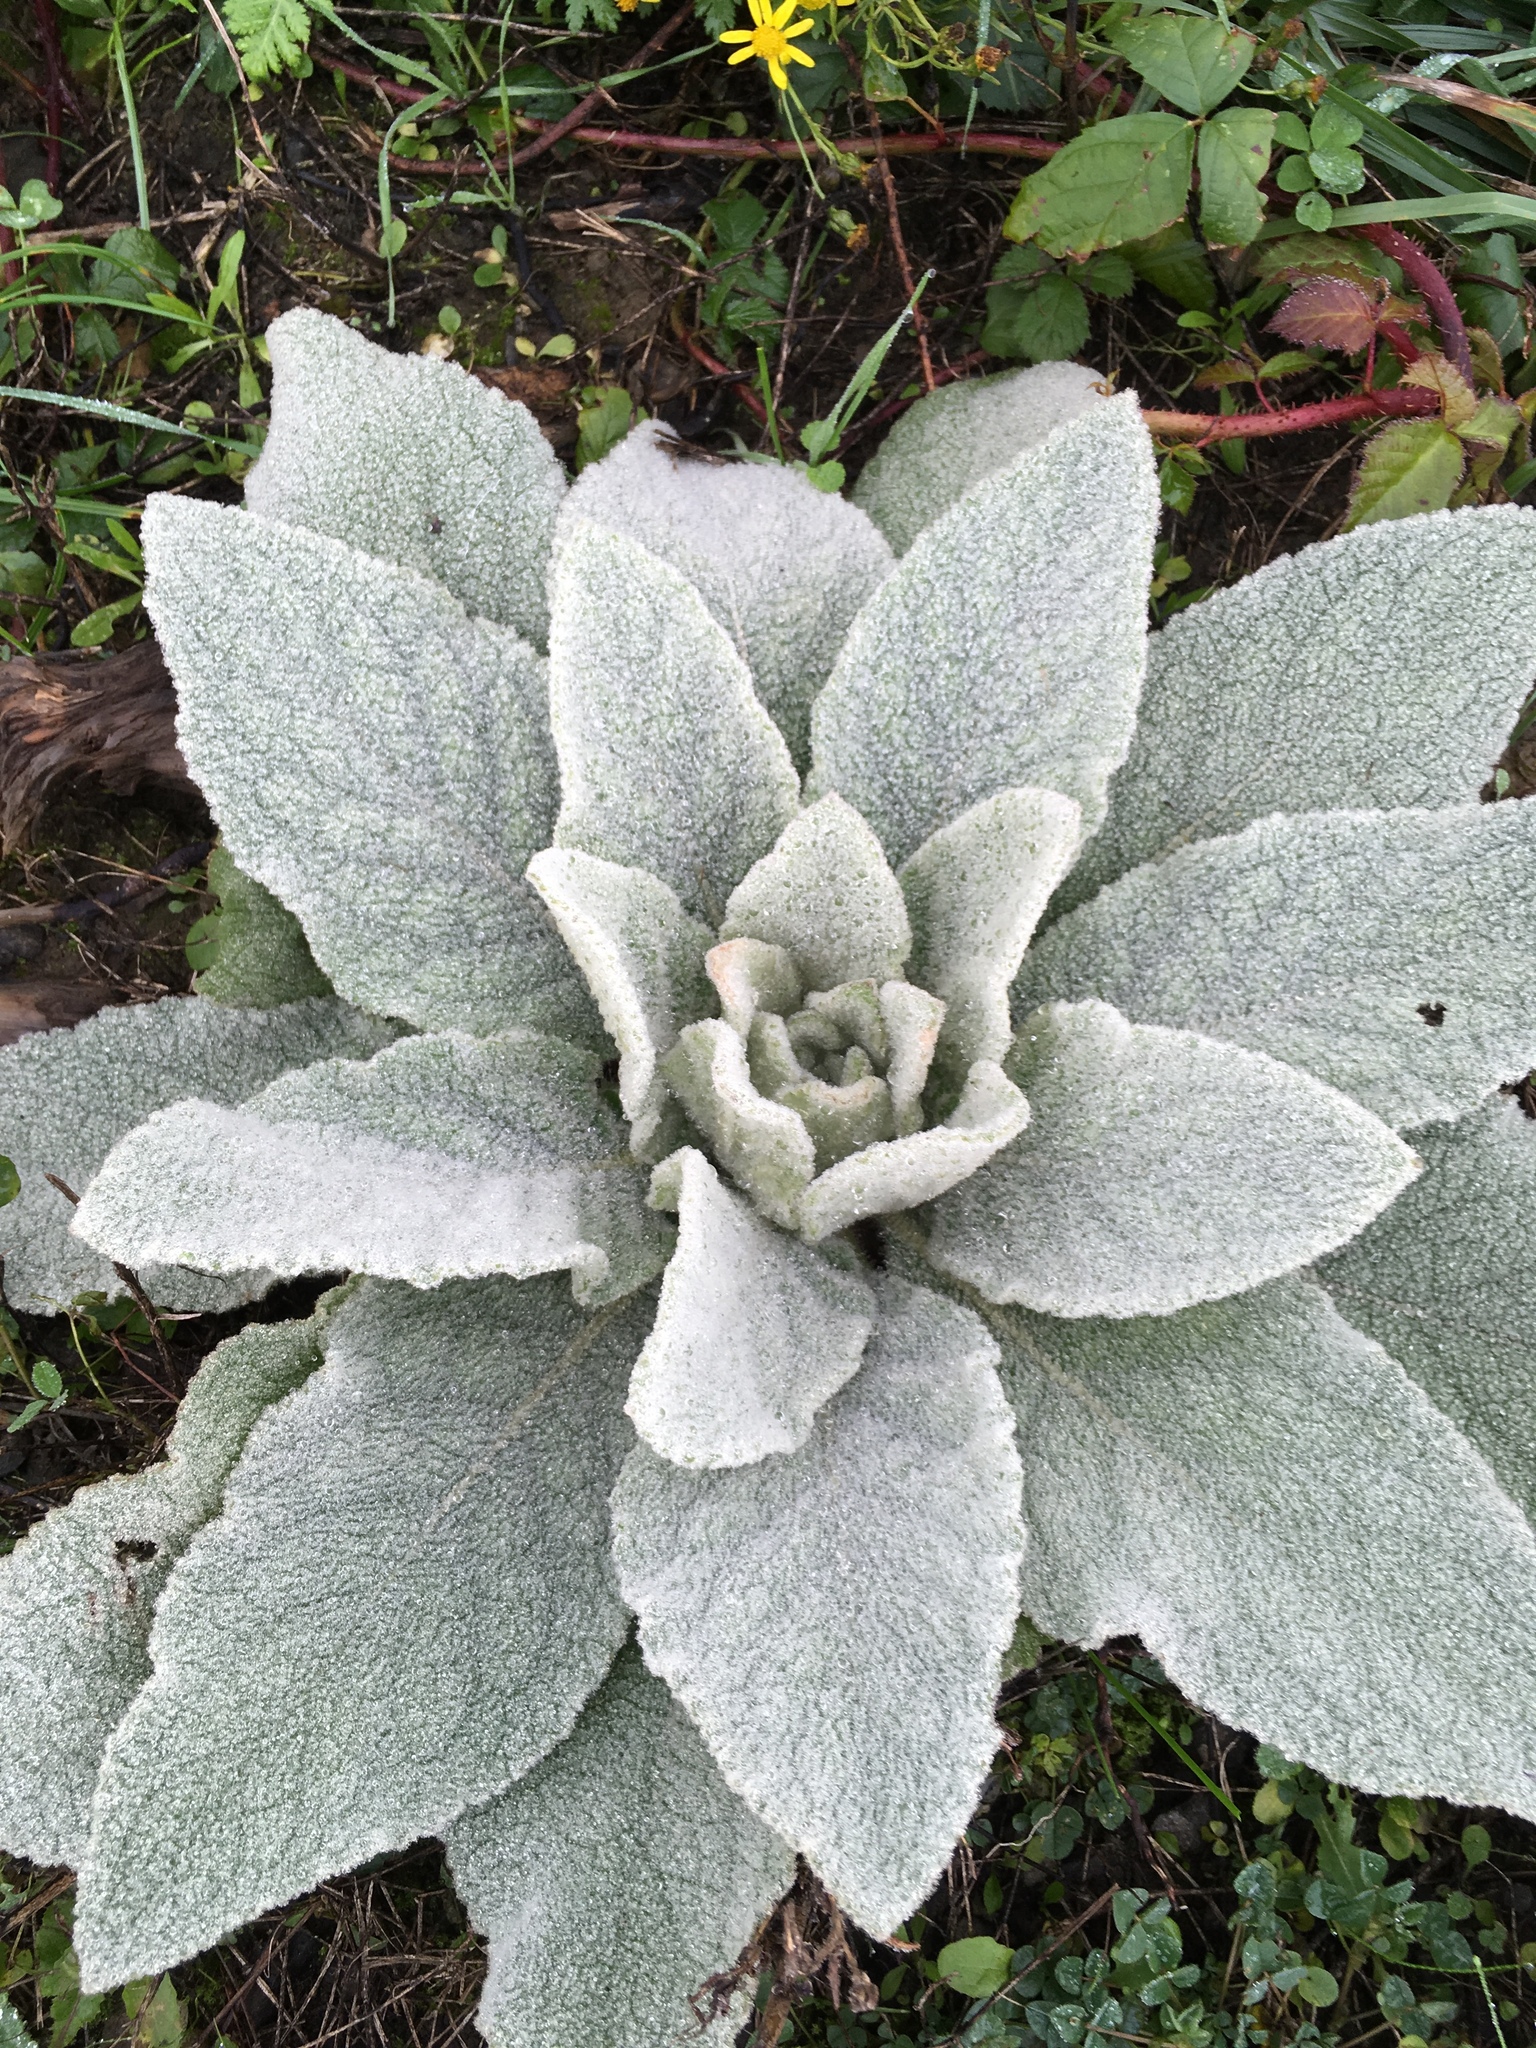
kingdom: Plantae
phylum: Tracheophyta
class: Magnoliopsida
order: Lamiales
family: Scrophulariaceae
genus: Verbascum
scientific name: Verbascum thapsus
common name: Common mullein
